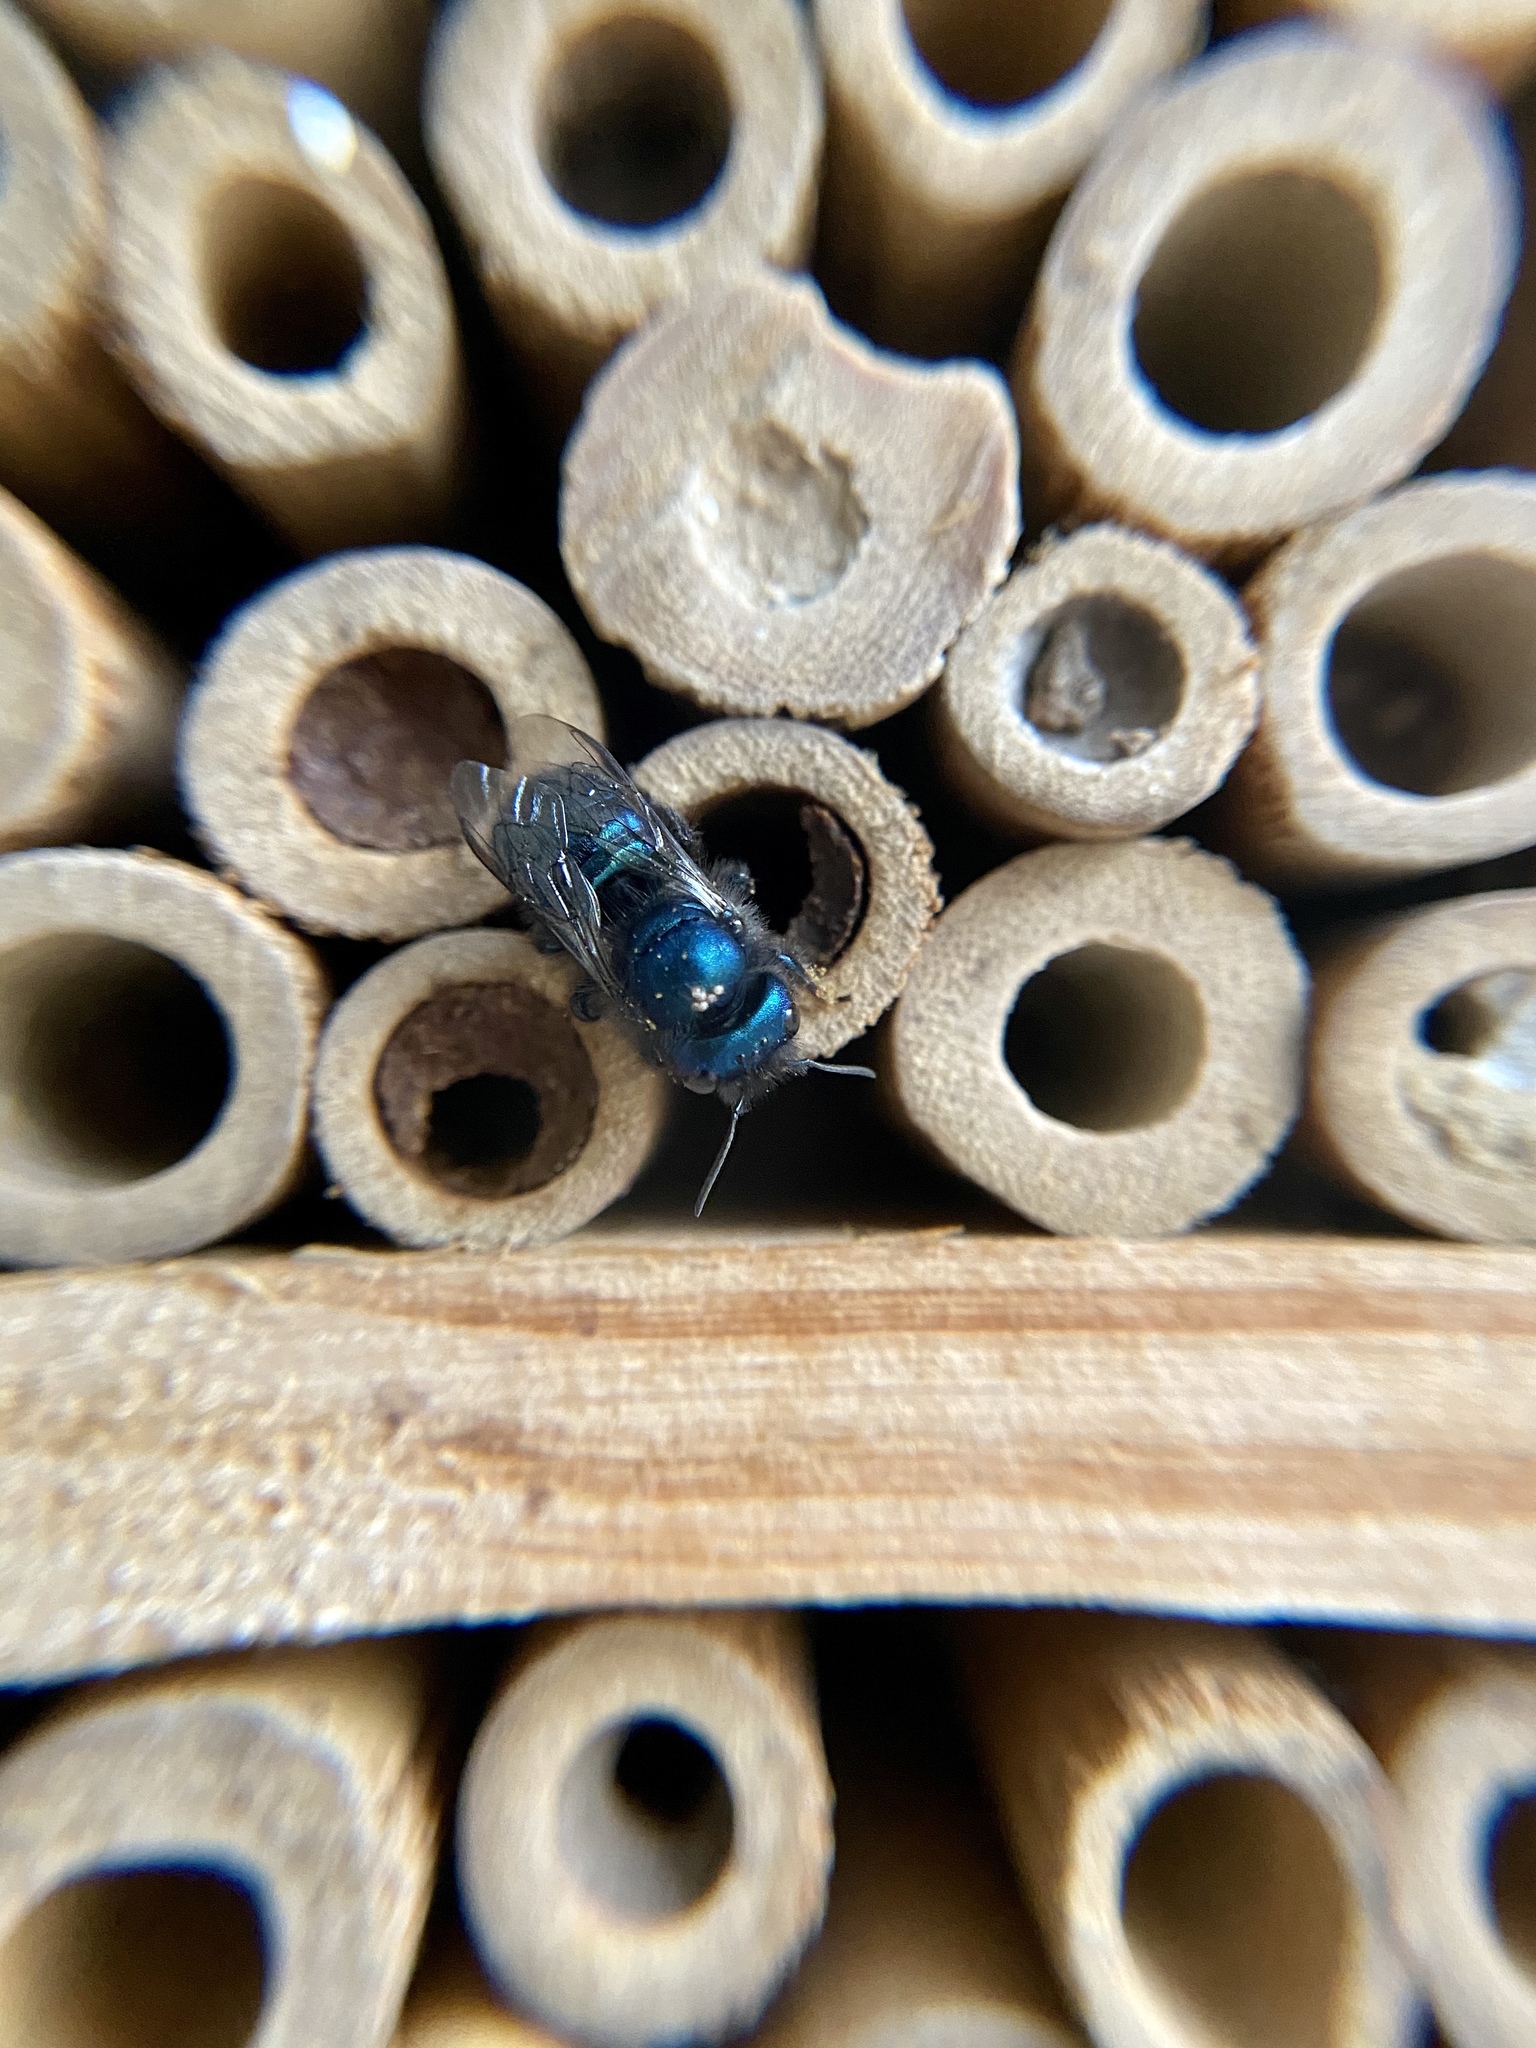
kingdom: Animalia
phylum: Arthropoda
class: Insecta
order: Hymenoptera
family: Megachilidae
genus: Osmia
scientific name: Osmia ribifloris
